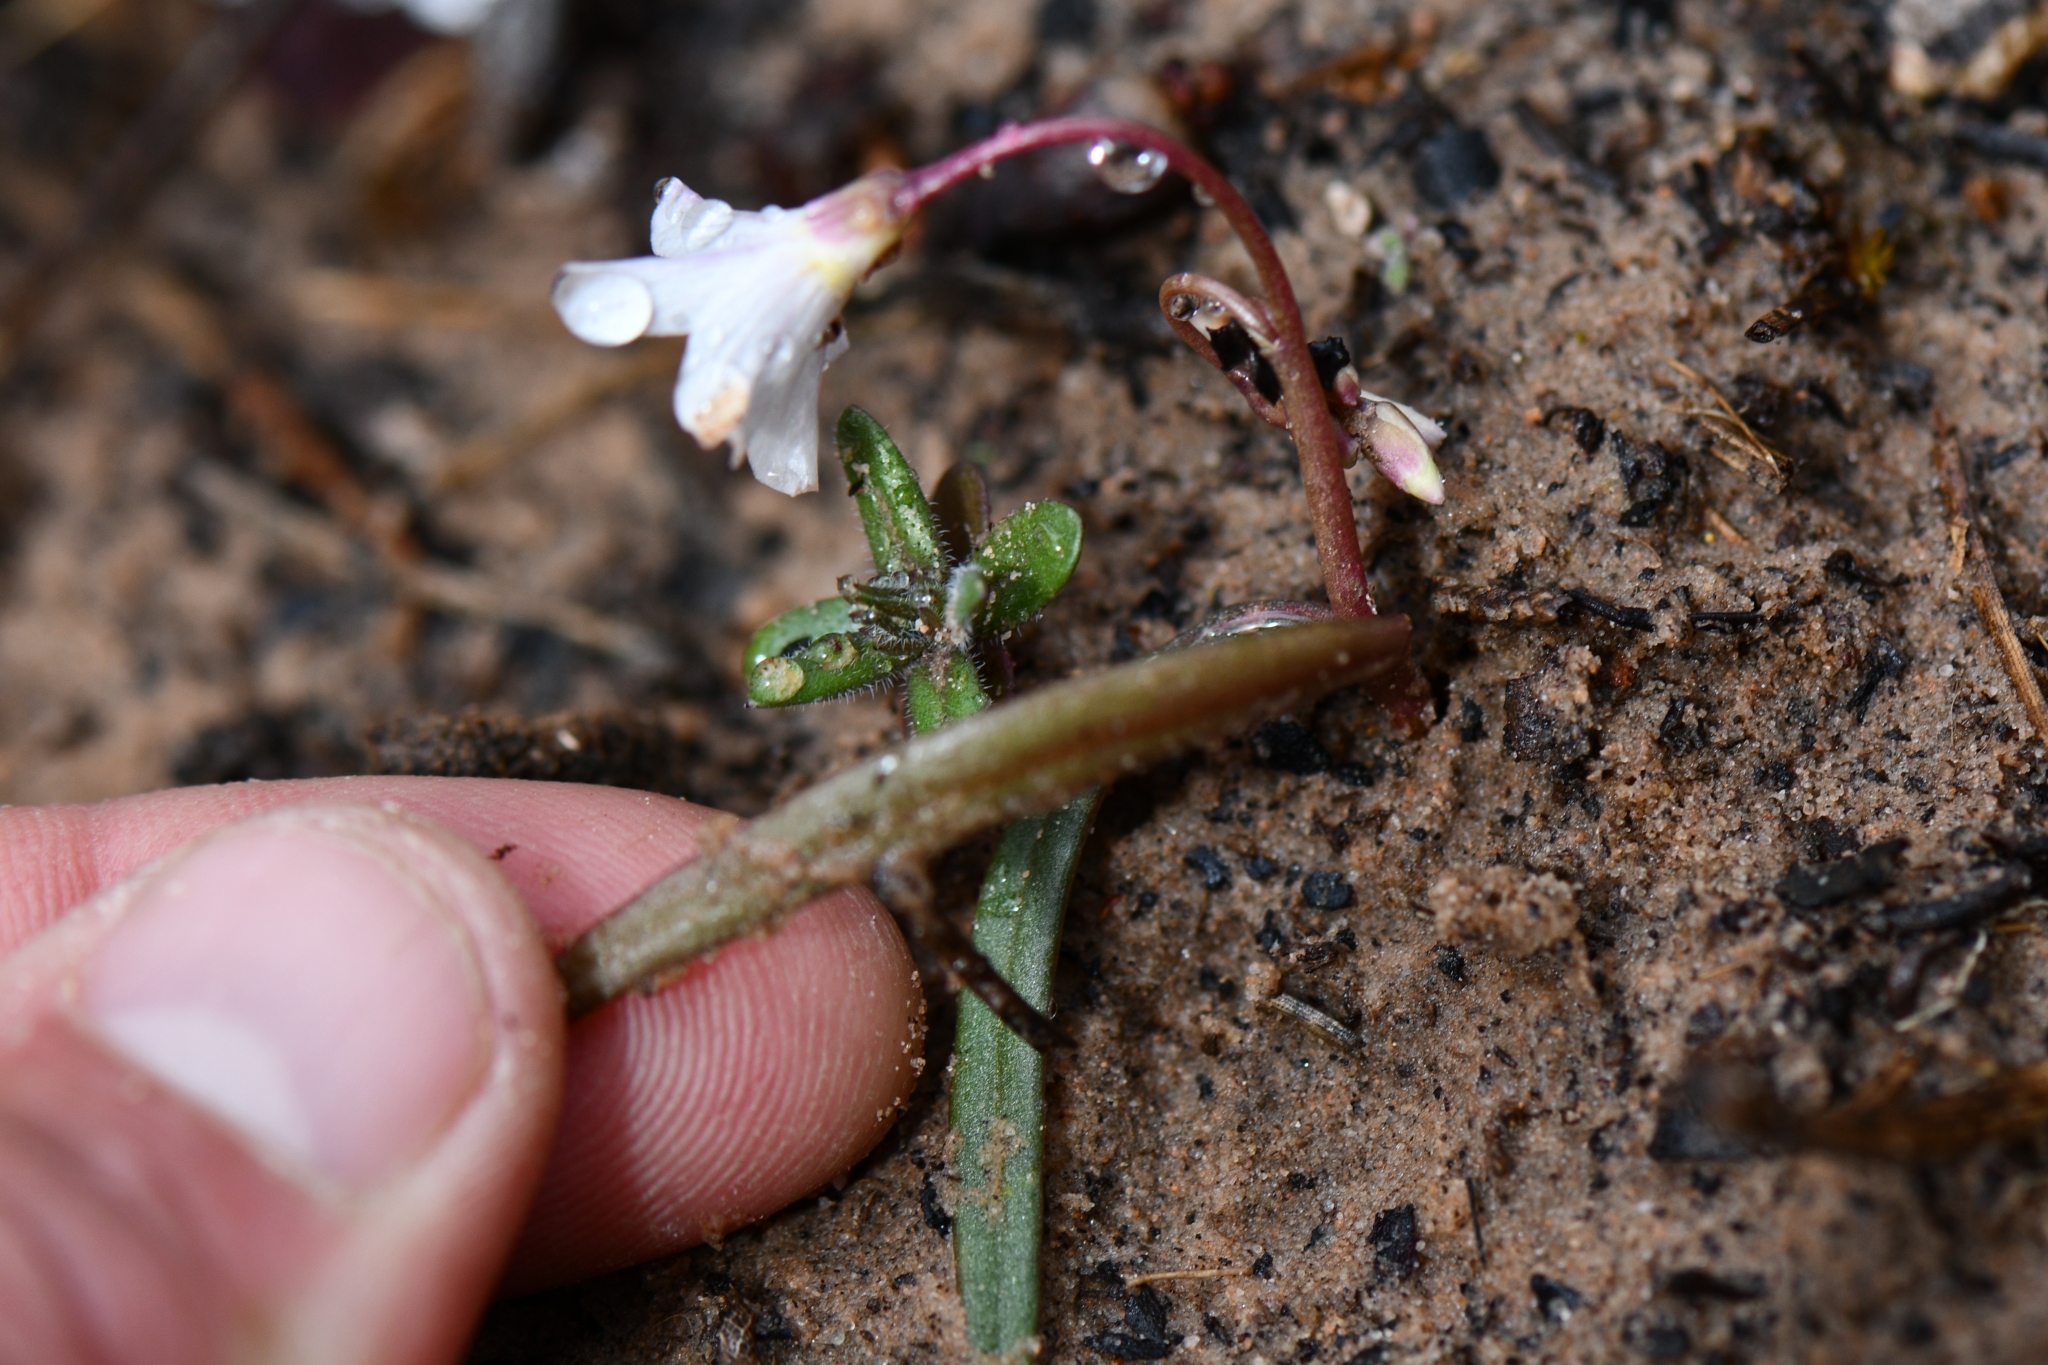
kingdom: Plantae
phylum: Tracheophyta
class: Magnoliopsida
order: Caryophyllales
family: Montiaceae
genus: Claytonia
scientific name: Claytonia rosea
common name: Rocky mountain spring-beauty
